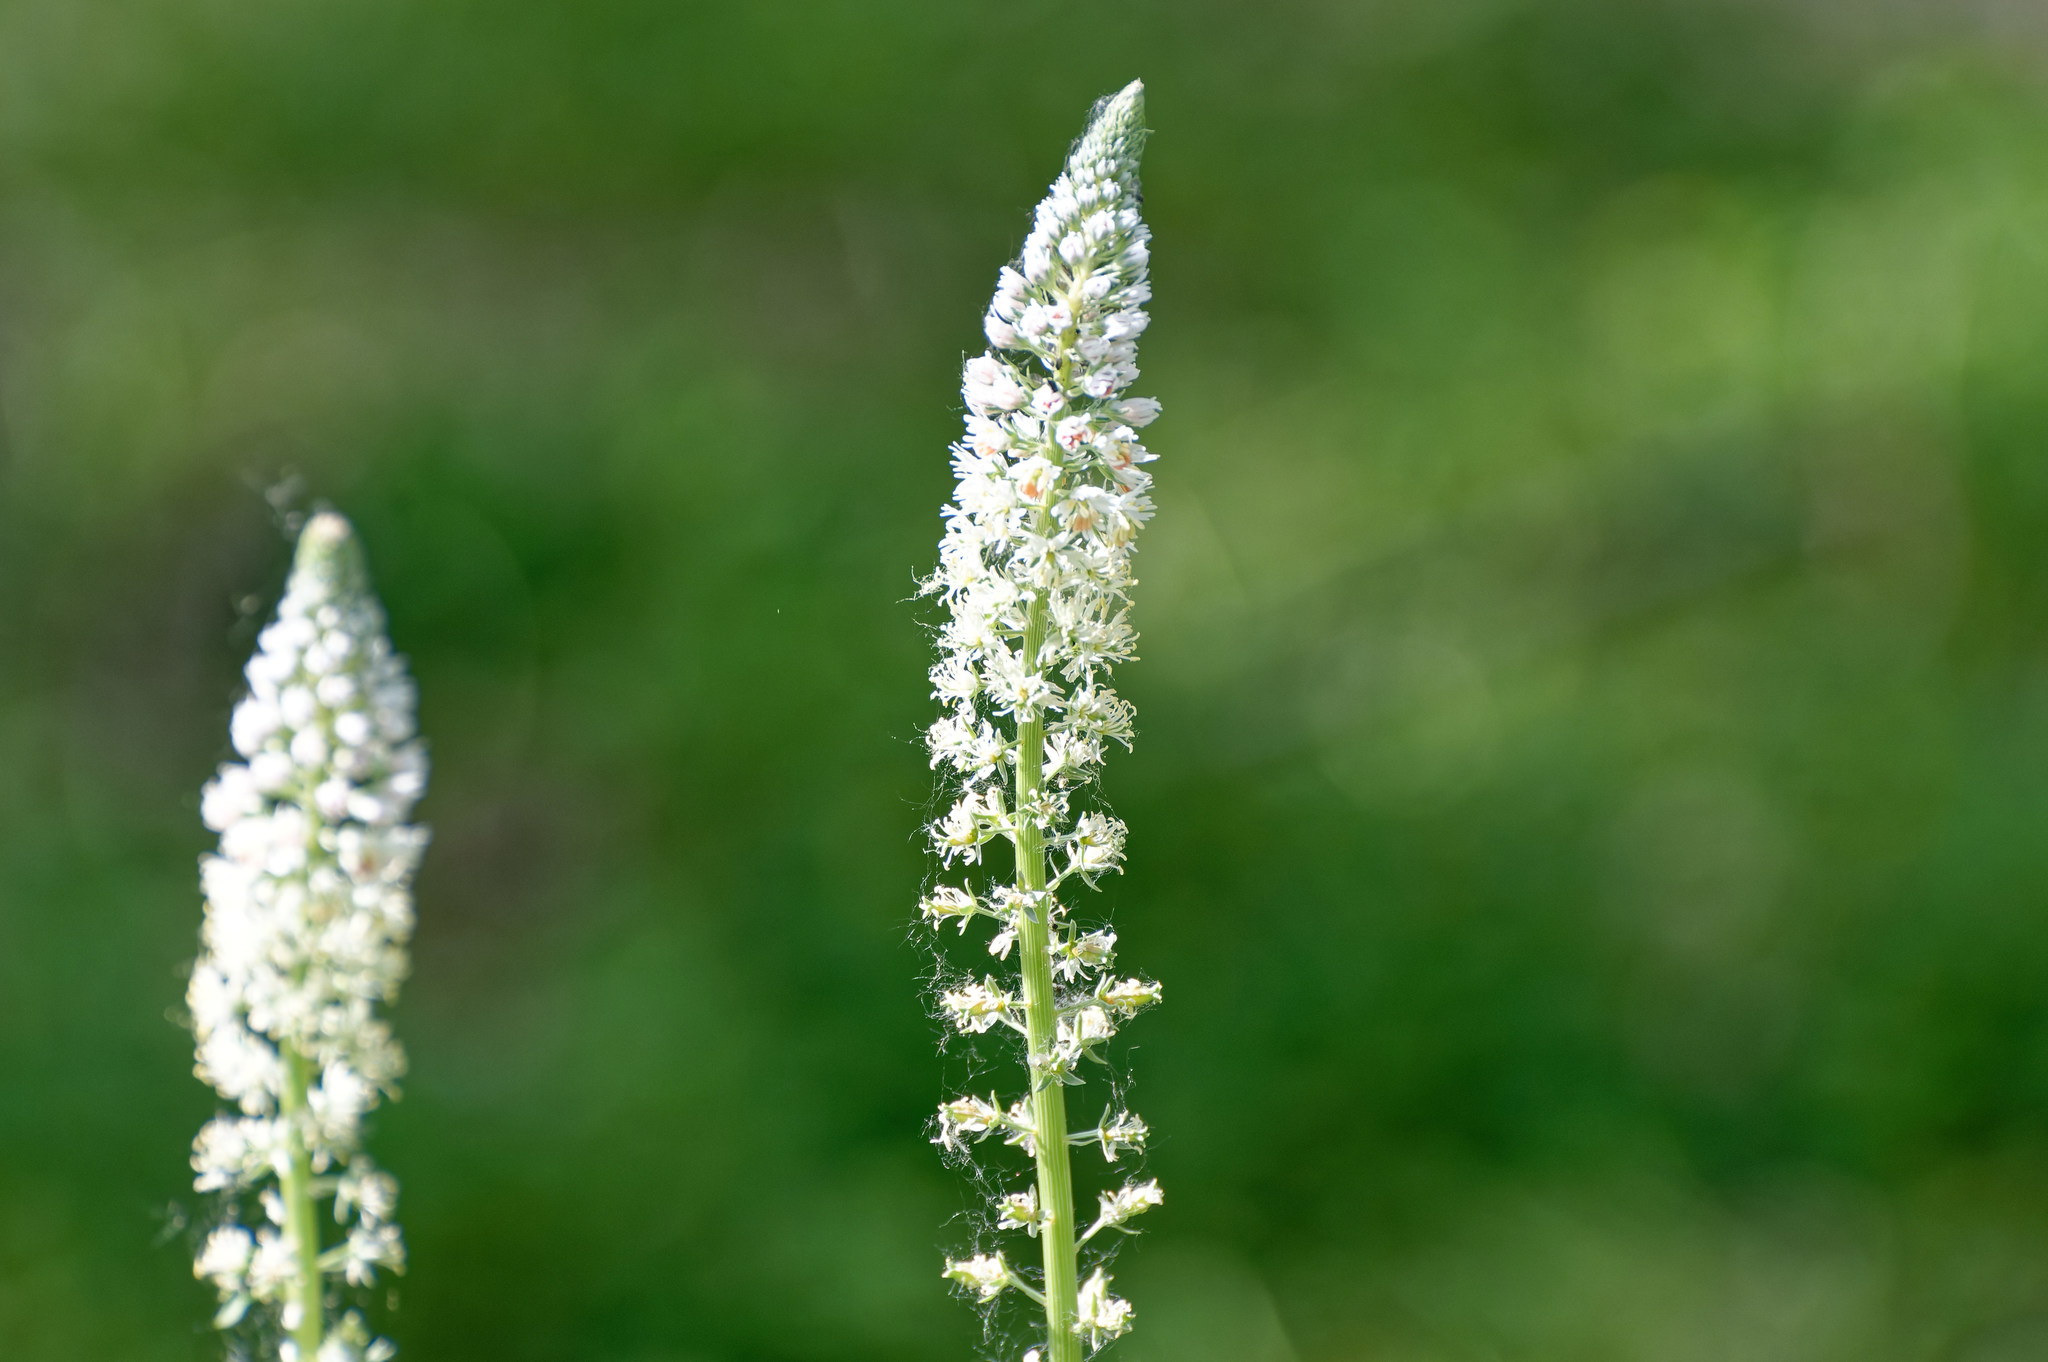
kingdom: Plantae
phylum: Tracheophyta
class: Magnoliopsida
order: Brassicales
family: Resedaceae
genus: Reseda
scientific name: Reseda alba
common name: White mignonette
